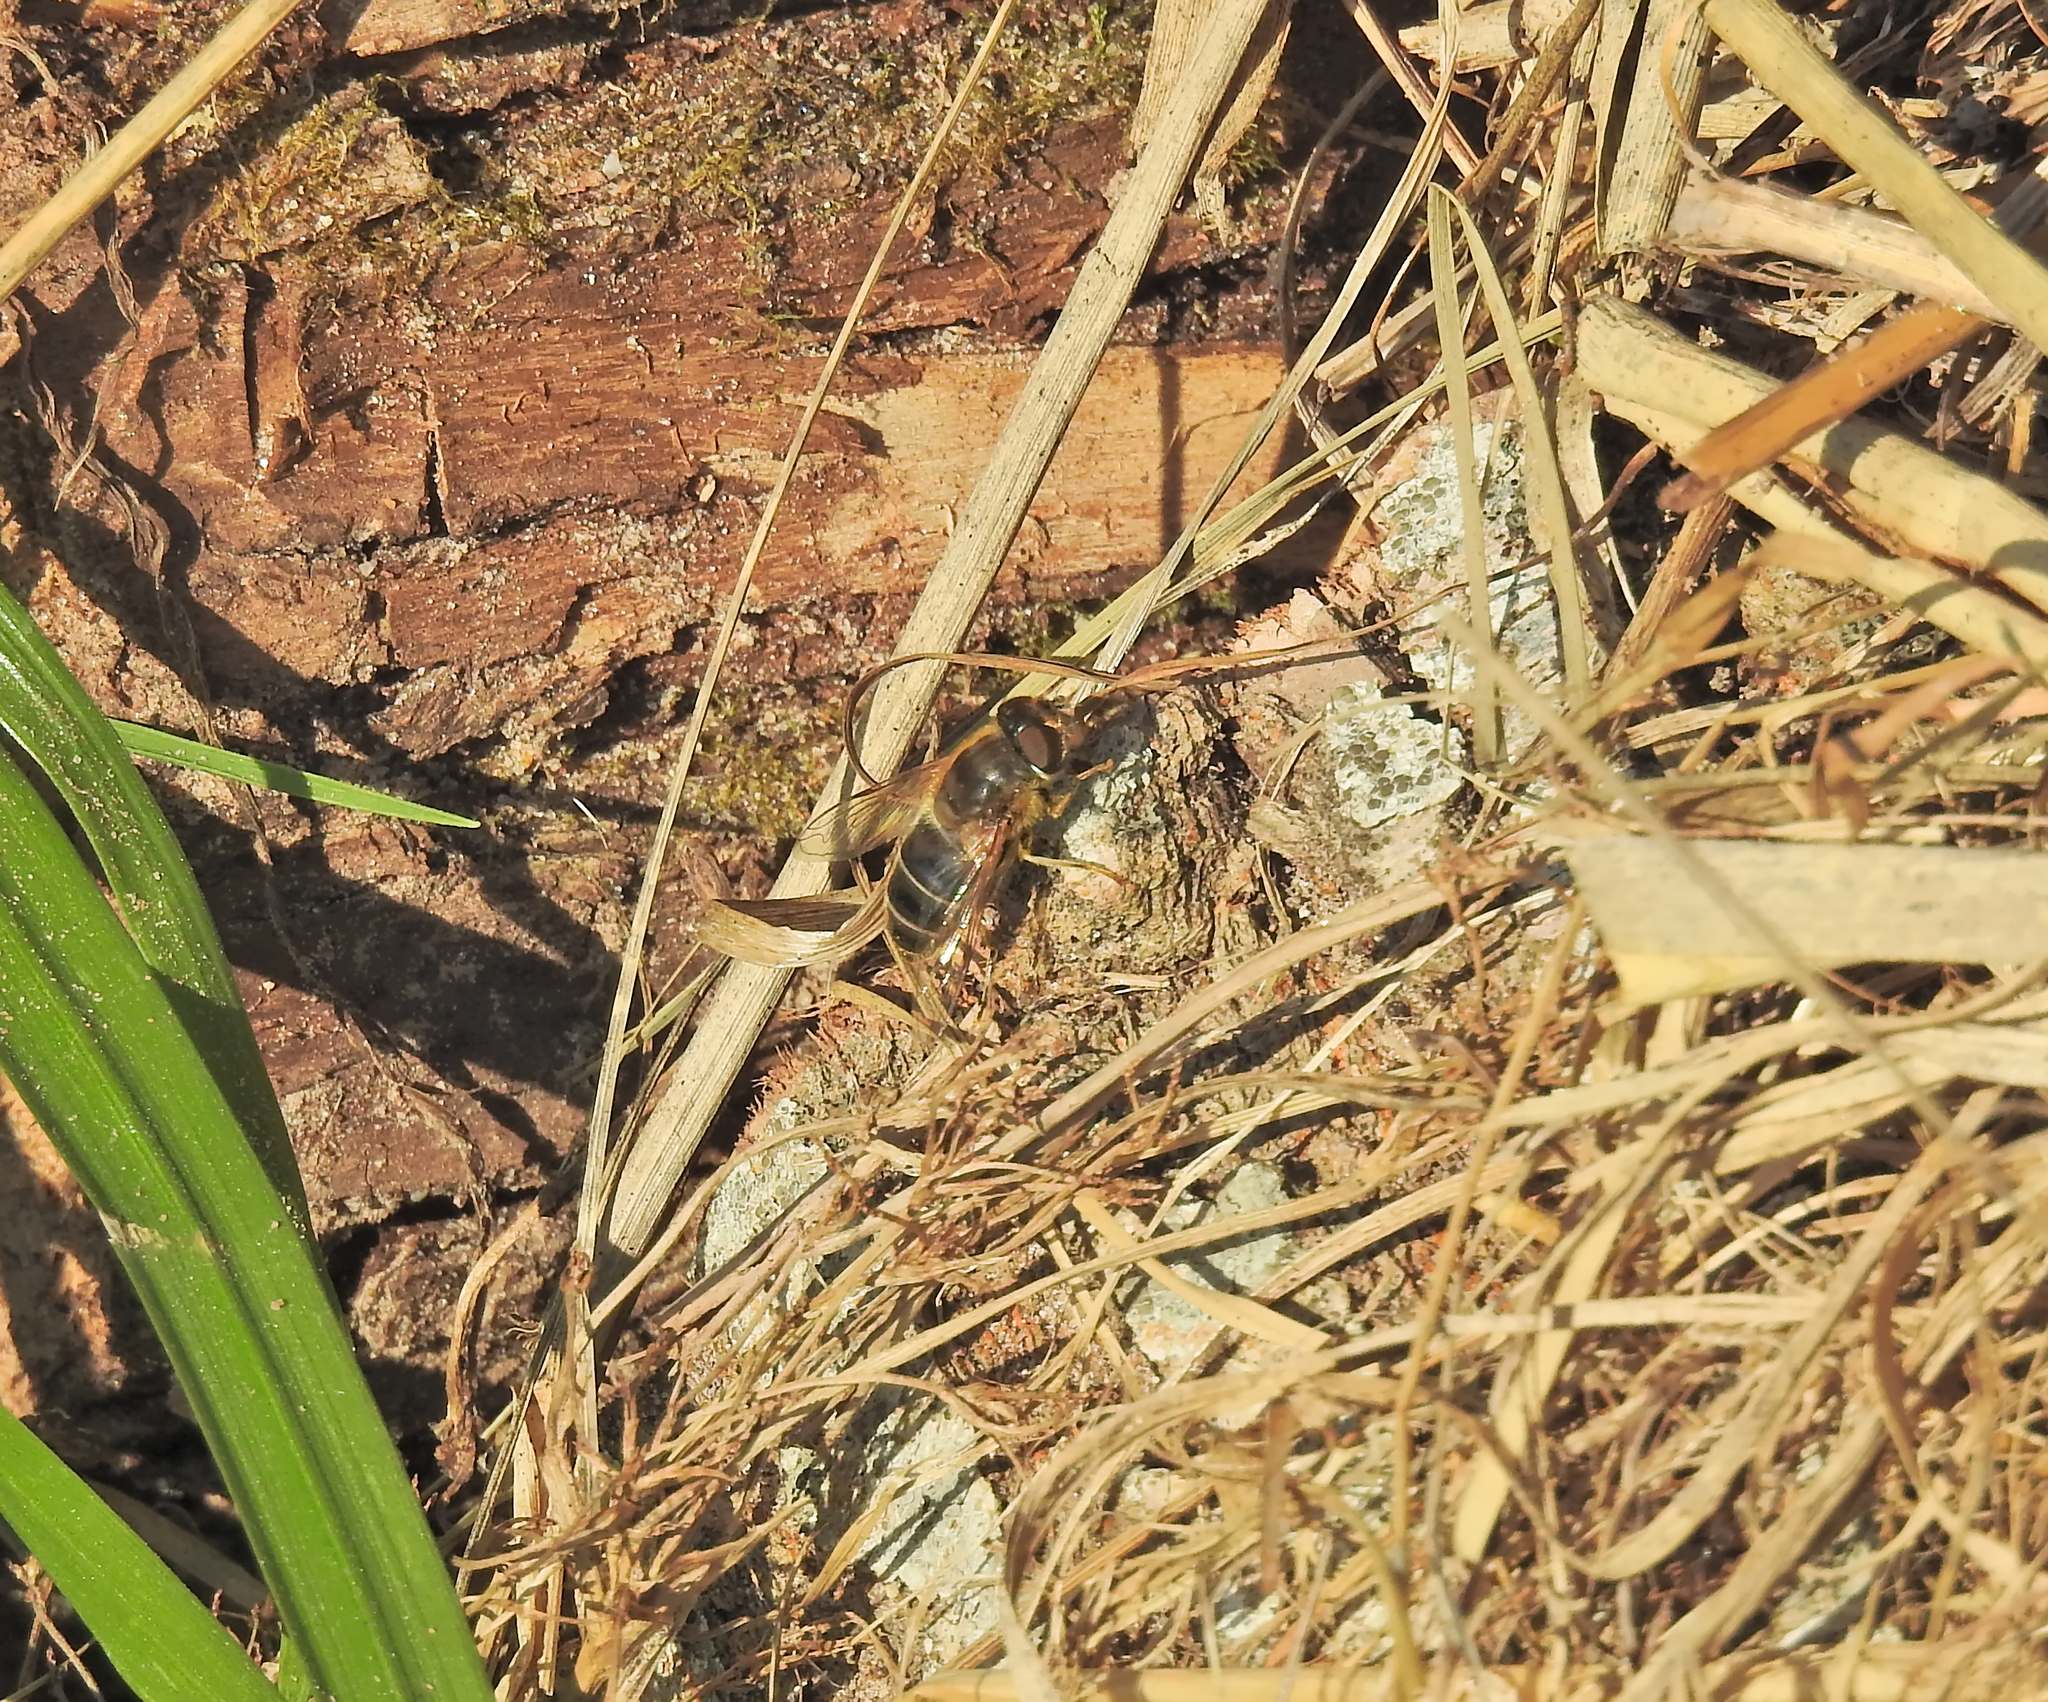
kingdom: Animalia
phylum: Arthropoda
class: Insecta
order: Diptera
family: Syrphidae
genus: Eristalis
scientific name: Eristalis pertinax
